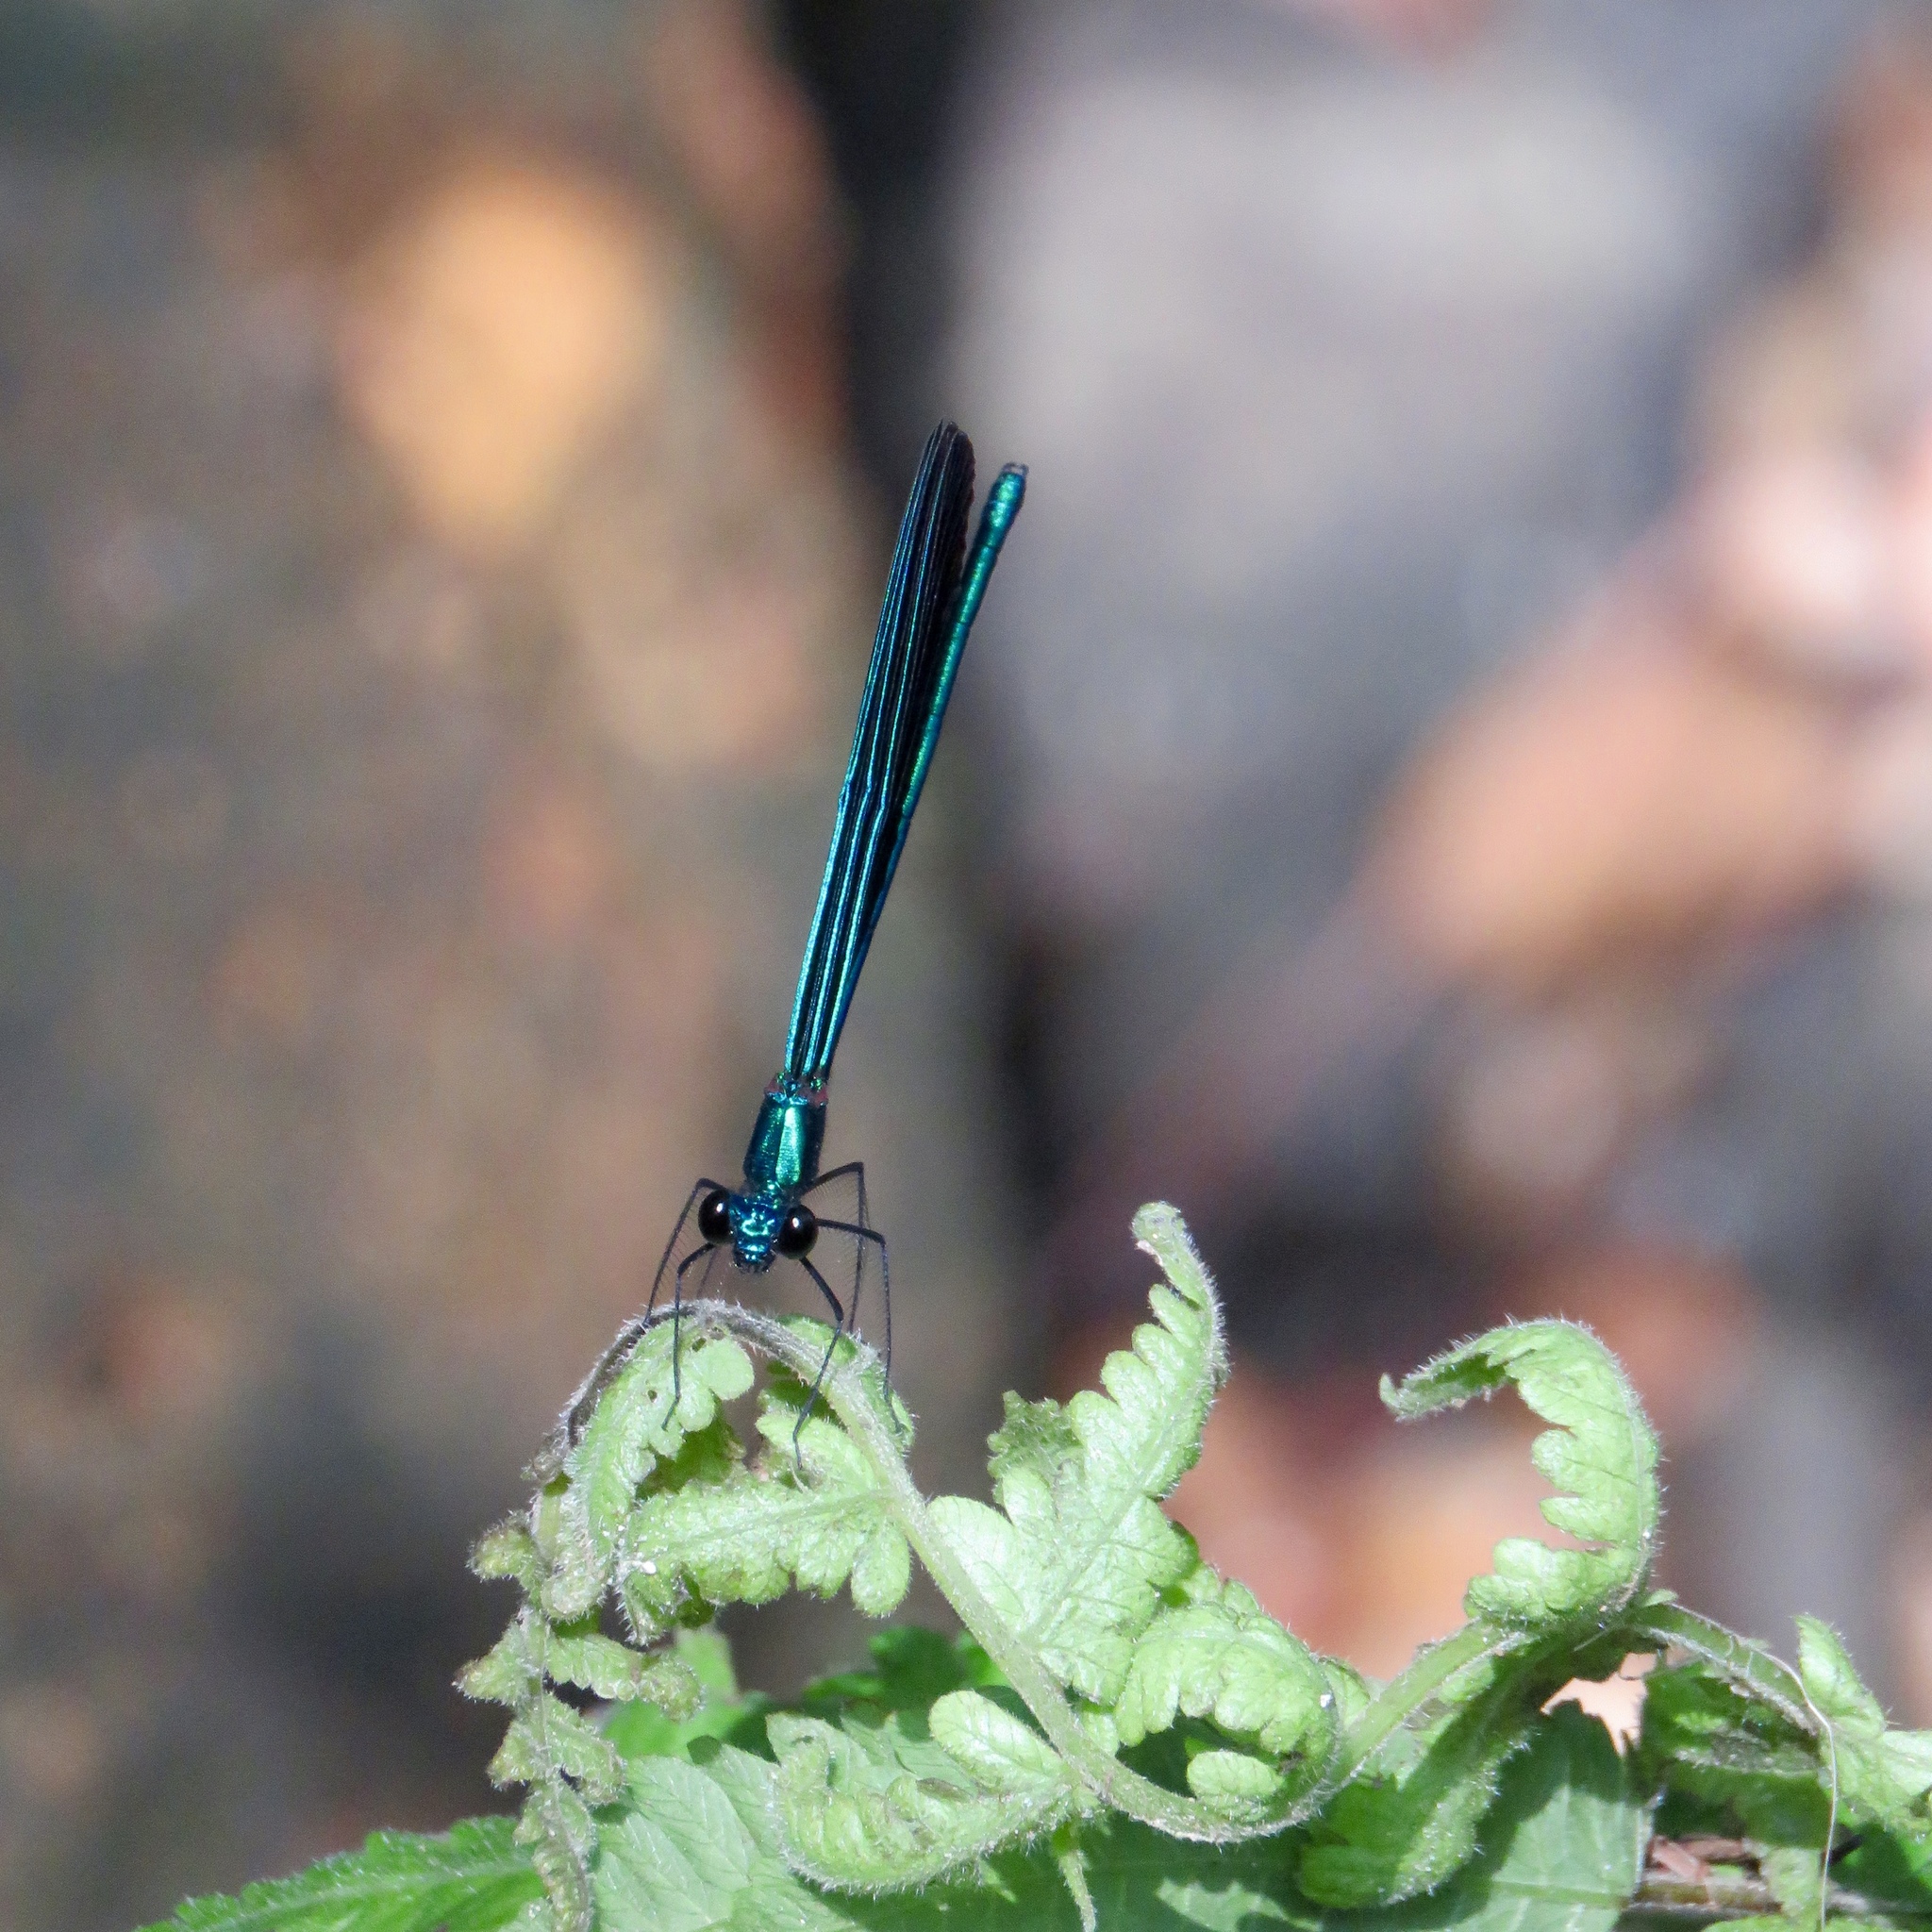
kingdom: Animalia
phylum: Arthropoda
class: Insecta
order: Odonata
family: Calopterygidae
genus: Calopteryx
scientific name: Calopteryx maculata
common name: Ebony jewelwing
